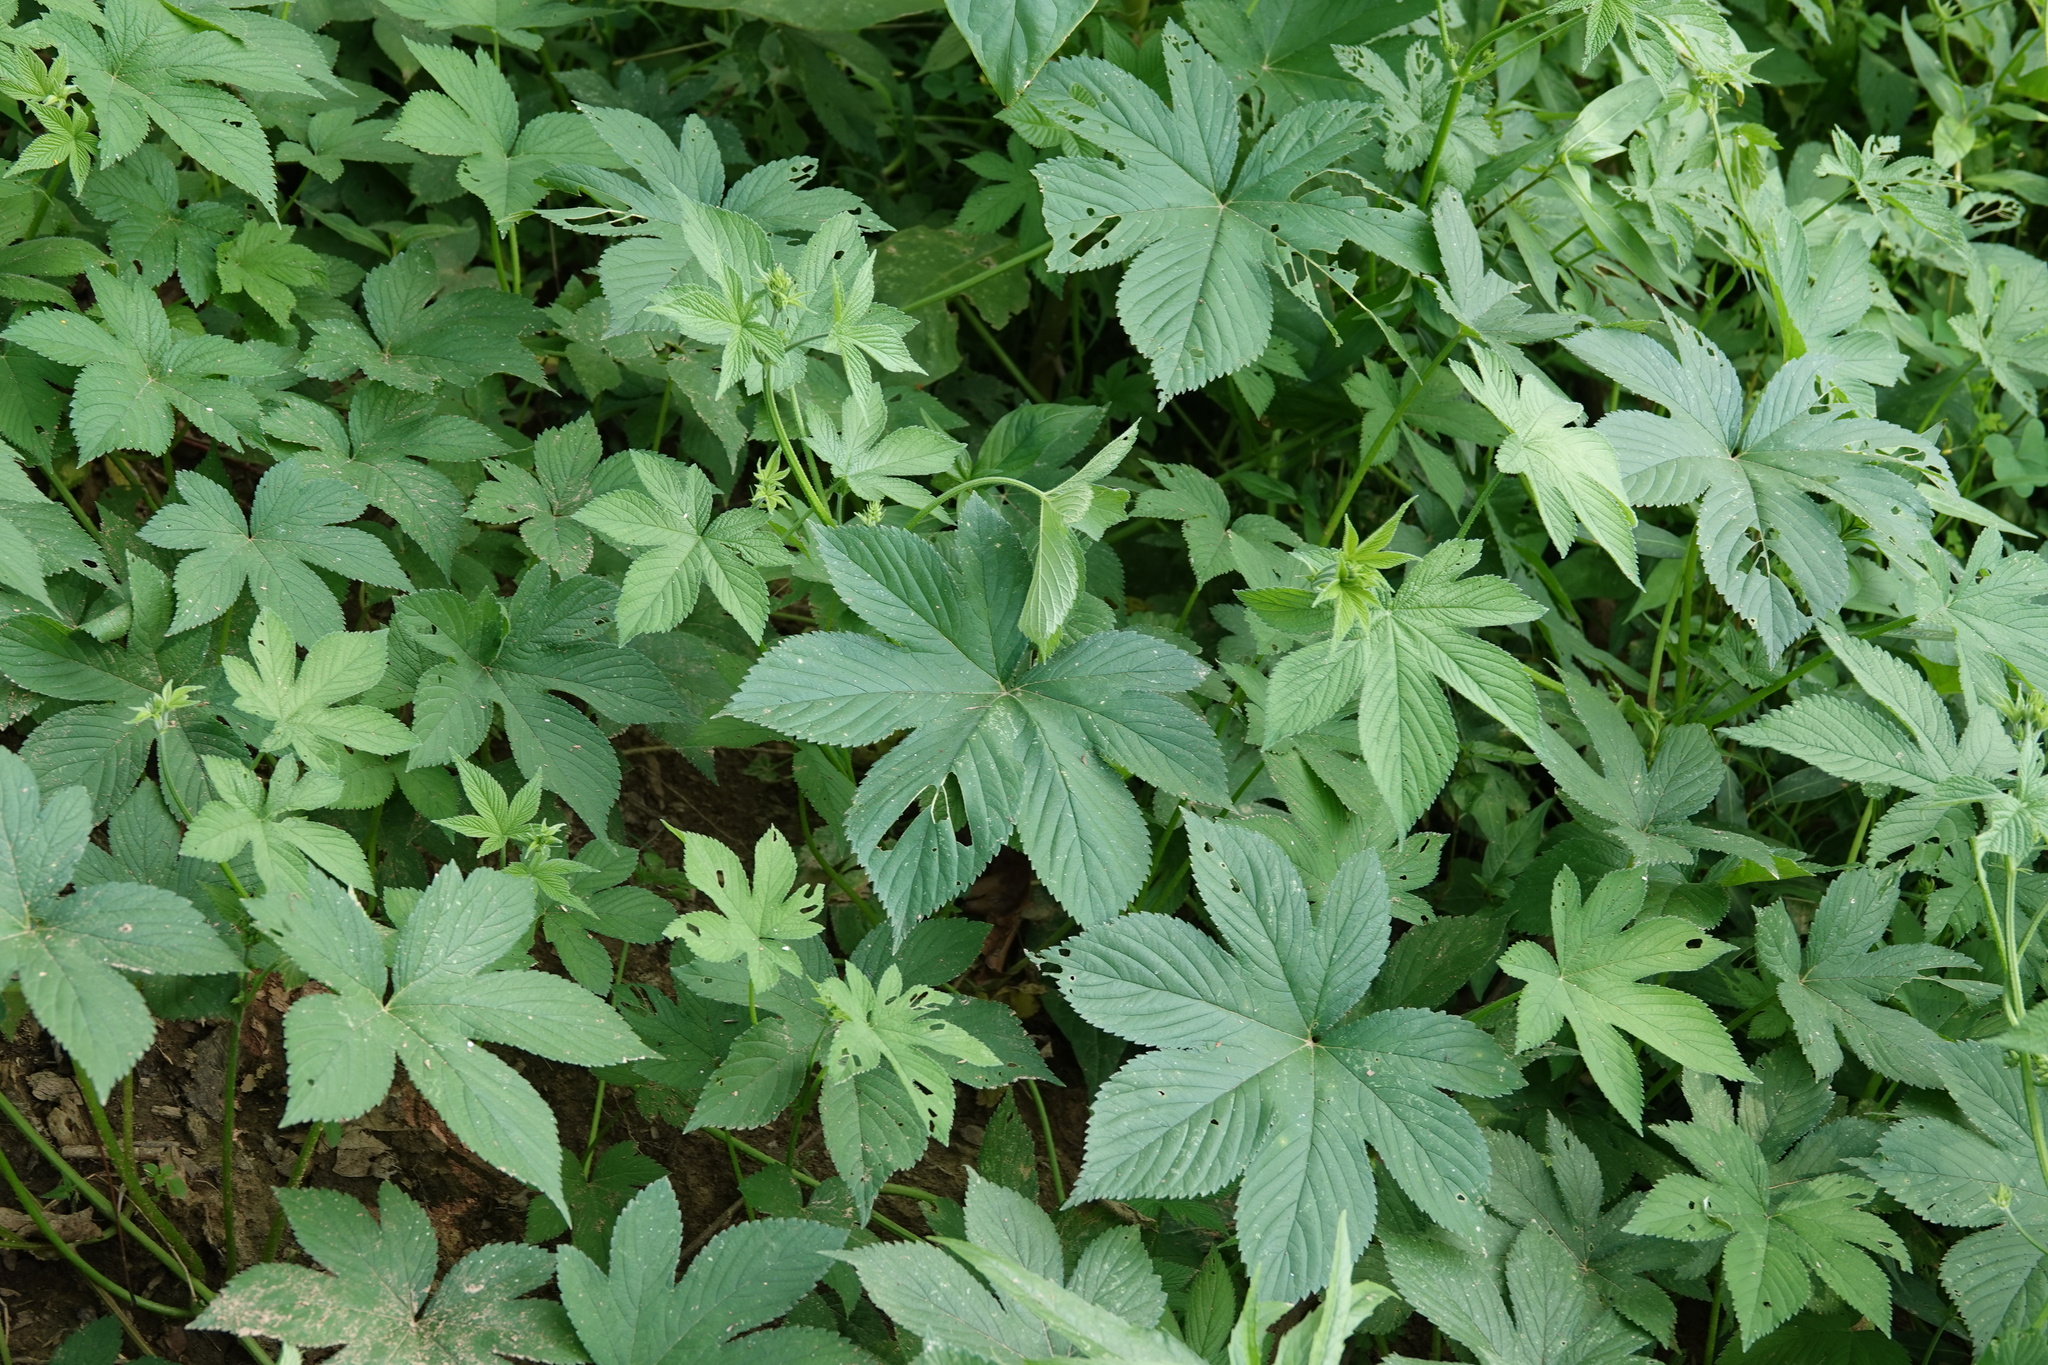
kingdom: Plantae
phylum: Tracheophyta
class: Magnoliopsida
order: Rosales
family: Cannabaceae
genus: Humulus
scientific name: Humulus scandens
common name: Japanese hop
